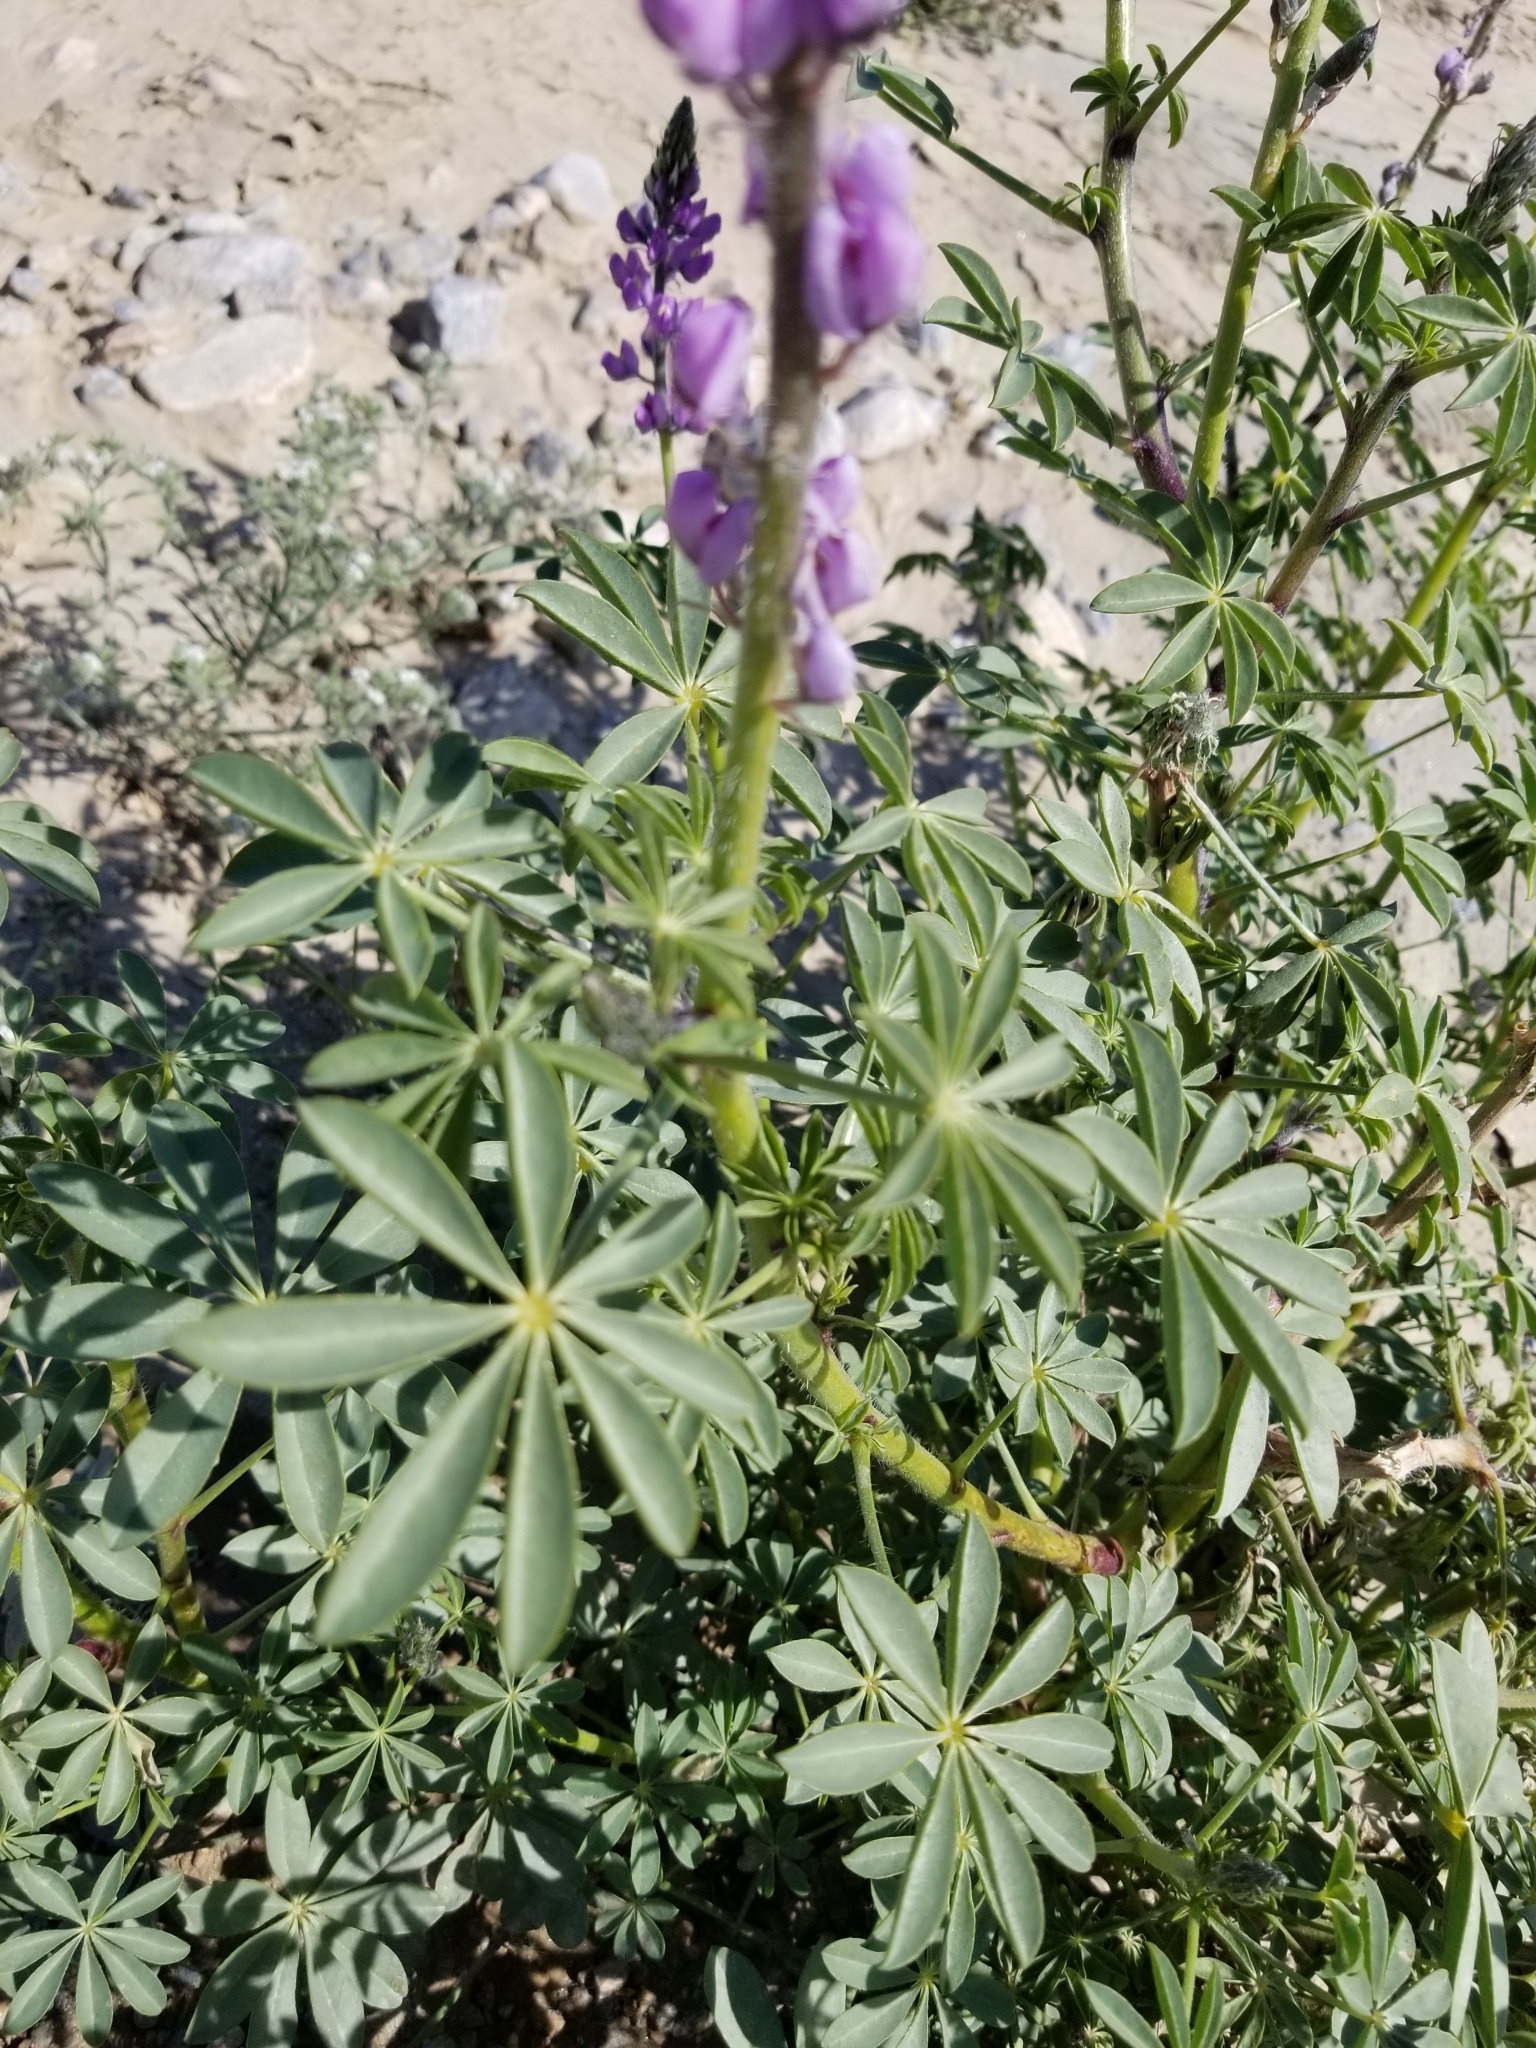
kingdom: Plantae
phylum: Tracheophyta
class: Magnoliopsida
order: Fabales
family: Fabaceae
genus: Lupinus
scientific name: Lupinus arizonicus
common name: Arizona lupine
